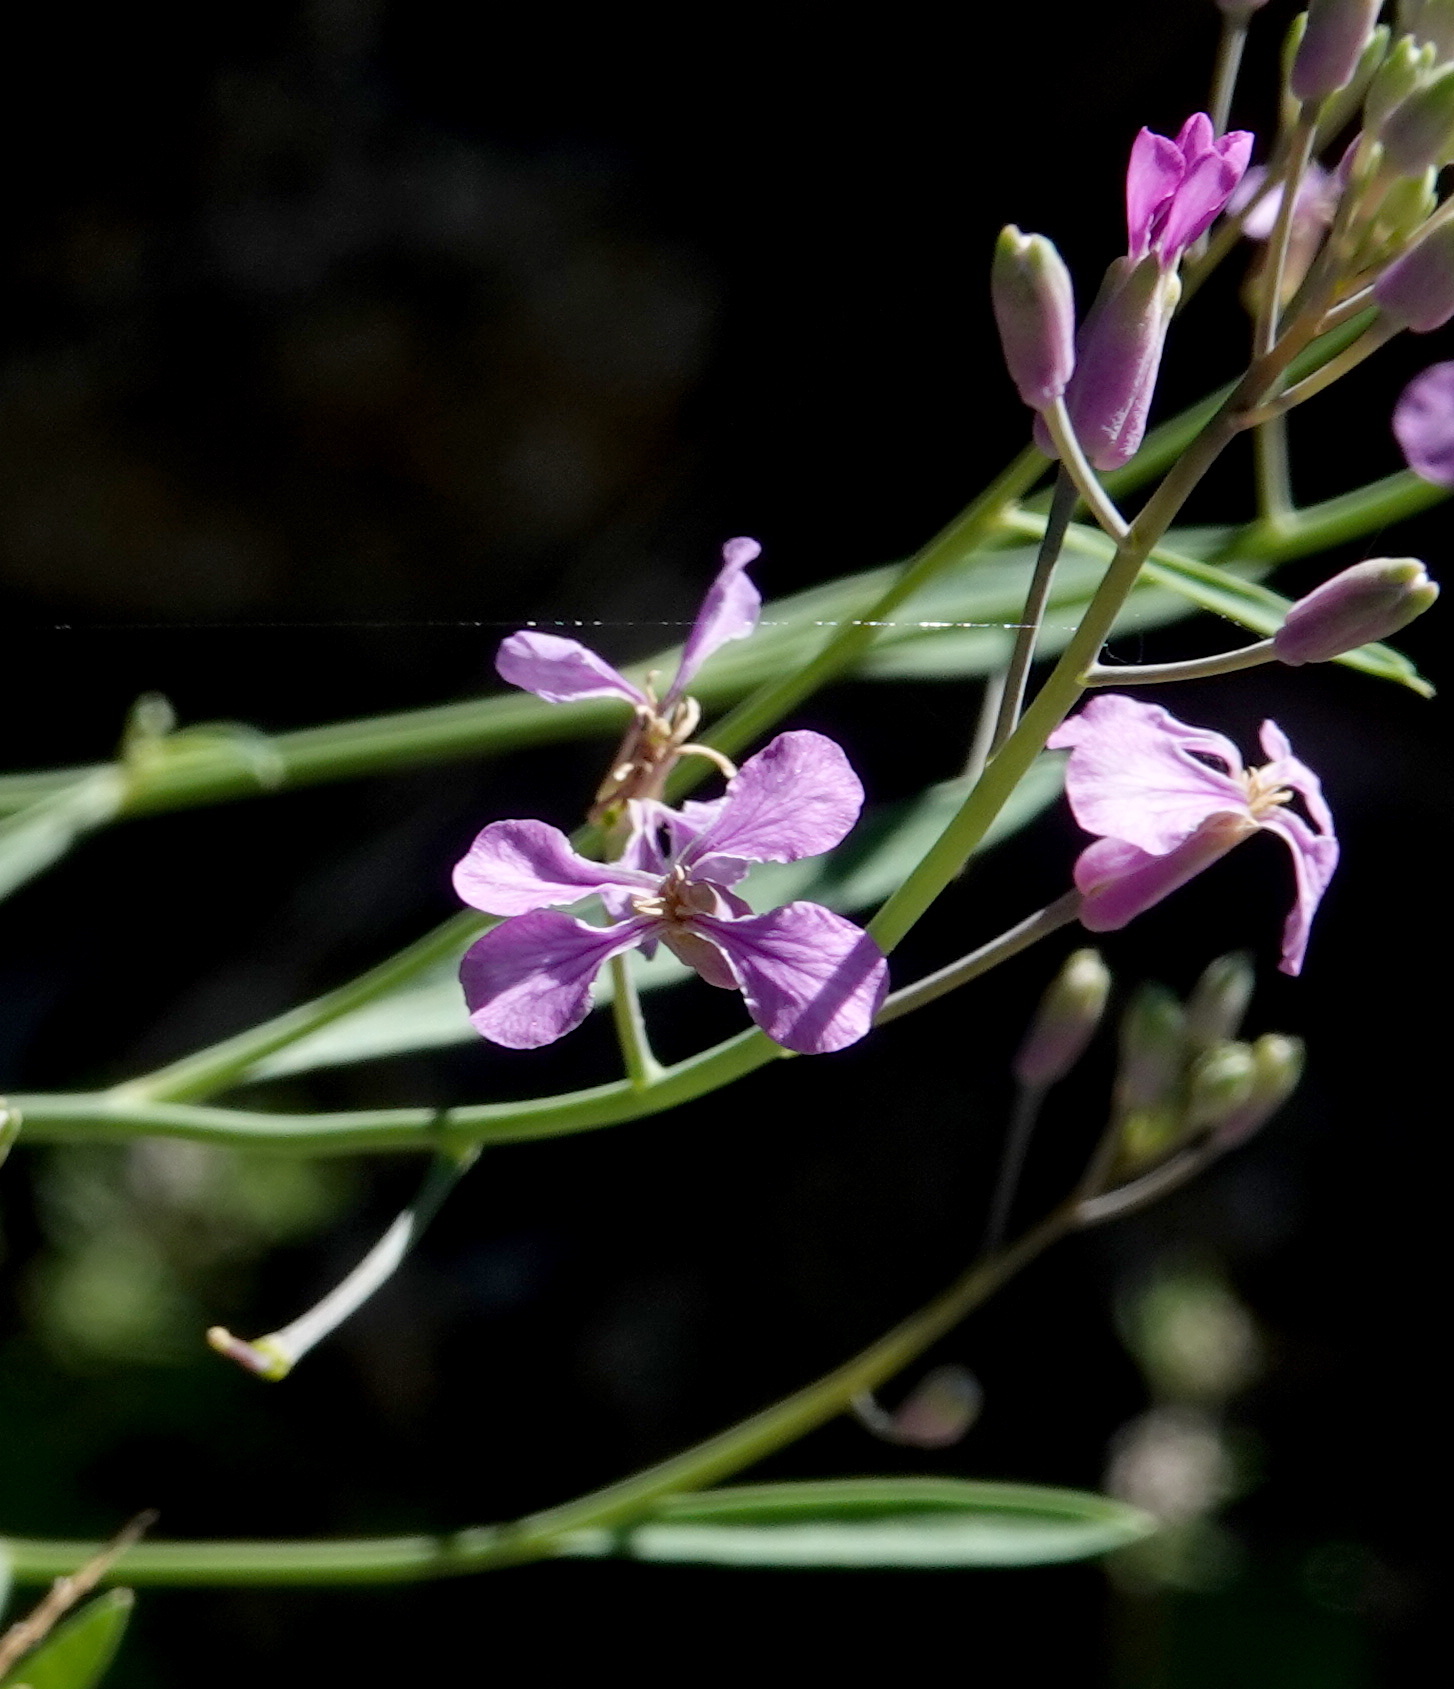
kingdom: Plantae
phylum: Tracheophyta
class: Magnoliopsida
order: Brassicales
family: Brassicaceae
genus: Hesperidanthus
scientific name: Hesperidanthus linearifolius
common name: Slim-leaf plains mustard
